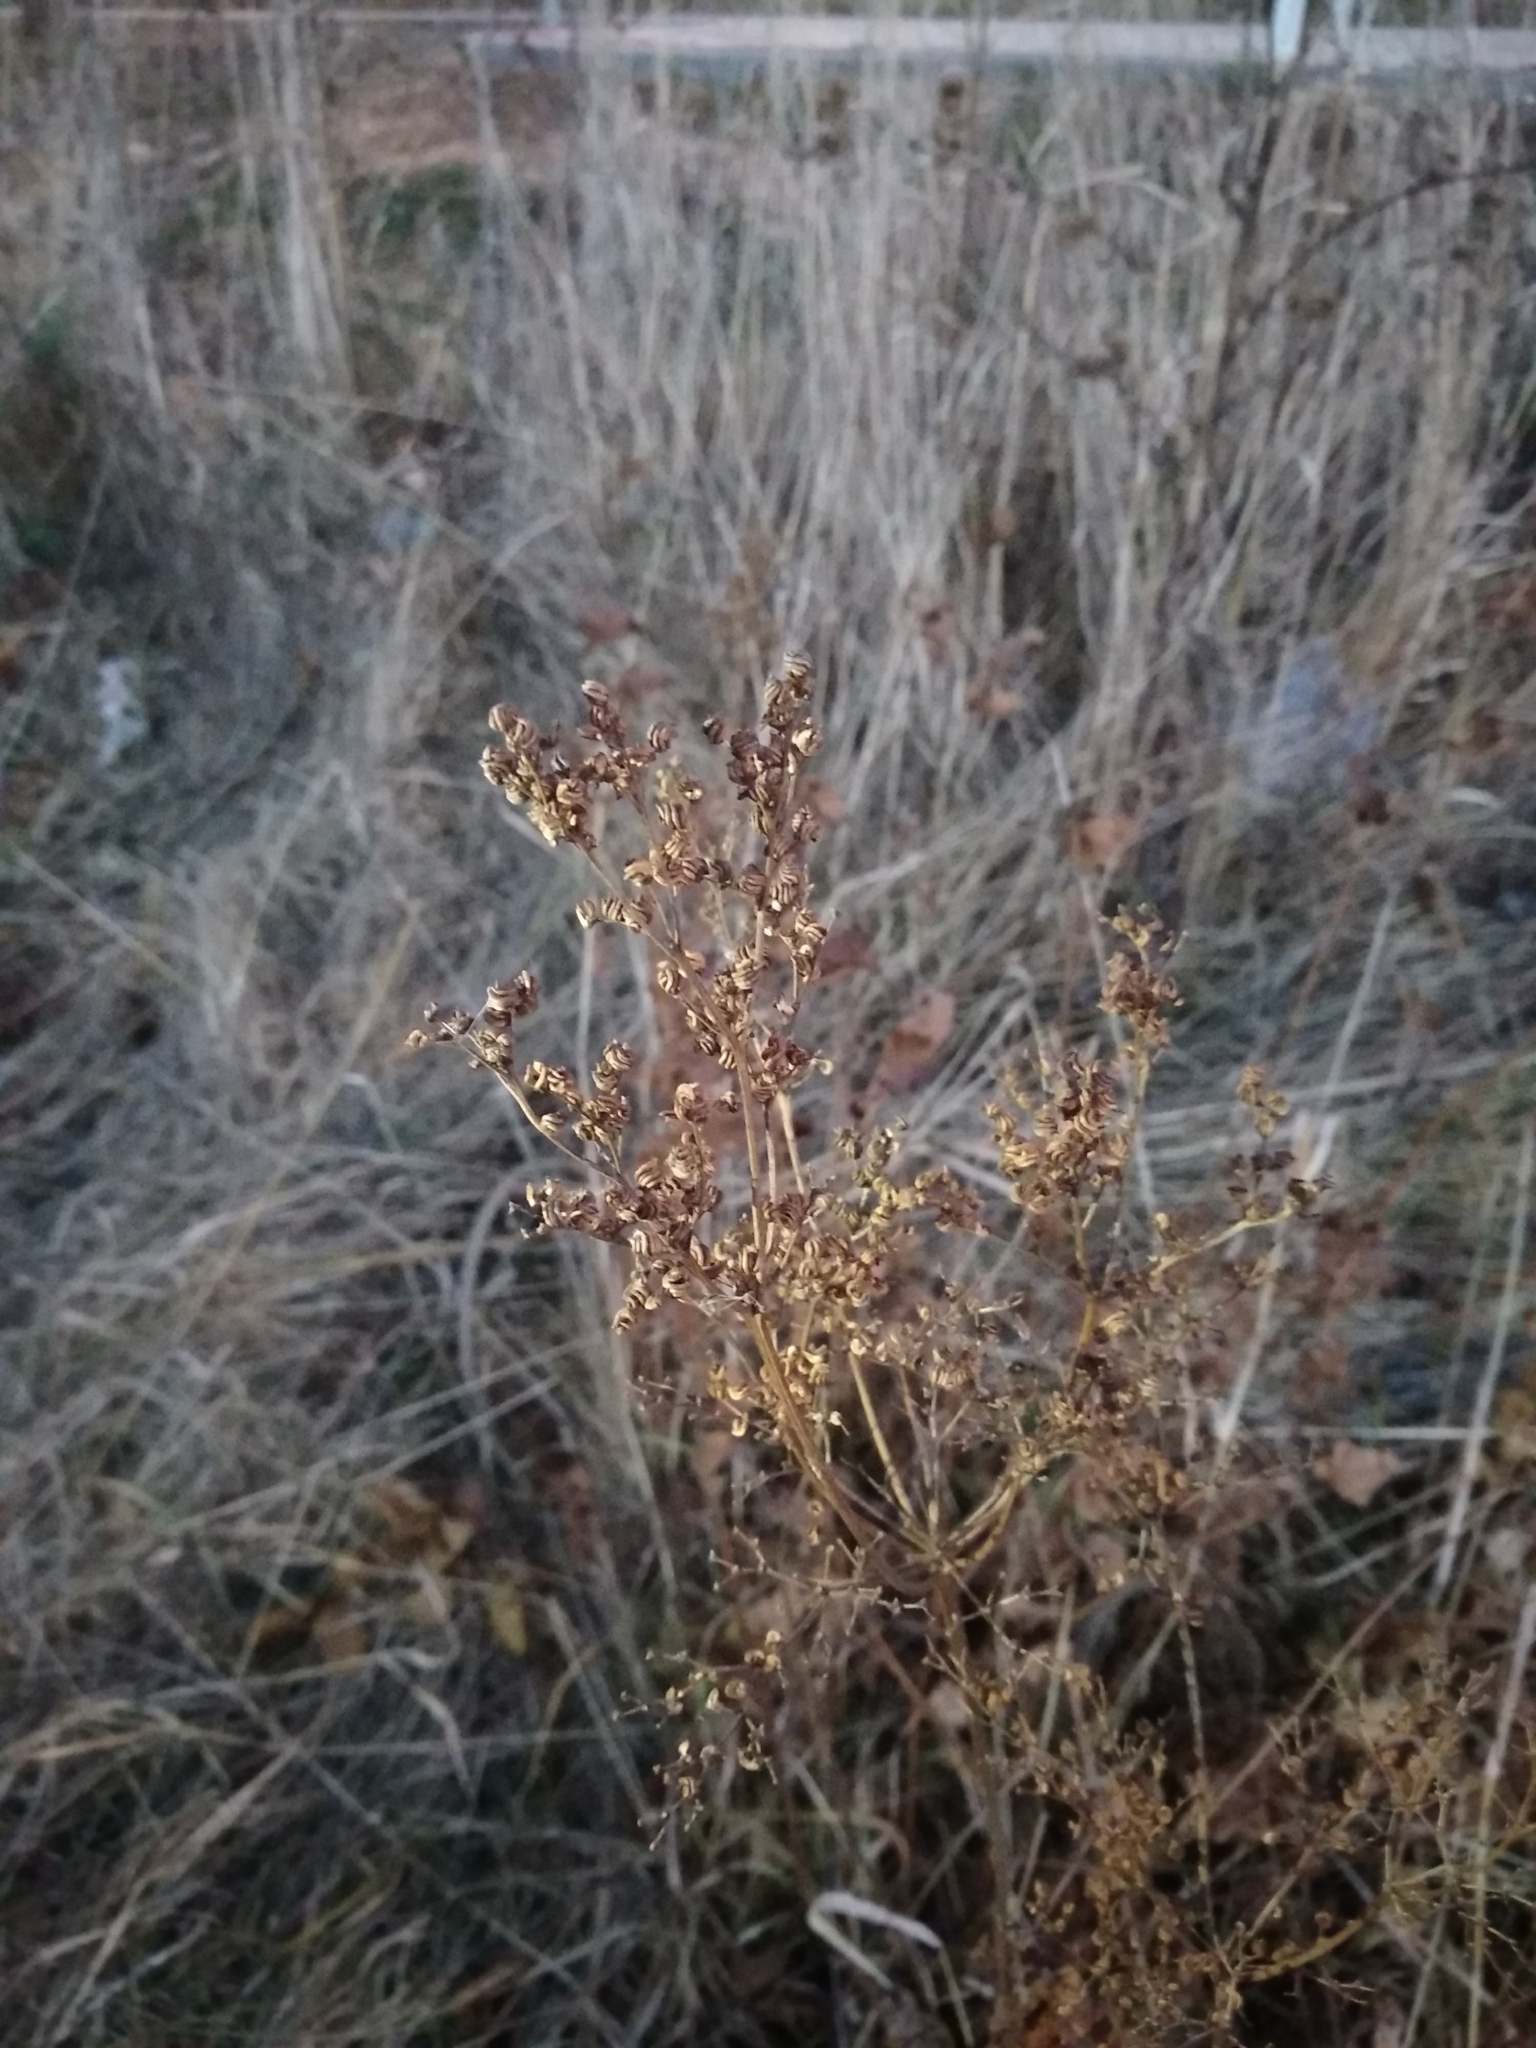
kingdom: Plantae
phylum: Tracheophyta
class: Magnoliopsida
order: Rosales
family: Rosaceae
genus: Filipendula
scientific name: Filipendula ulmaria
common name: Meadowsweet
